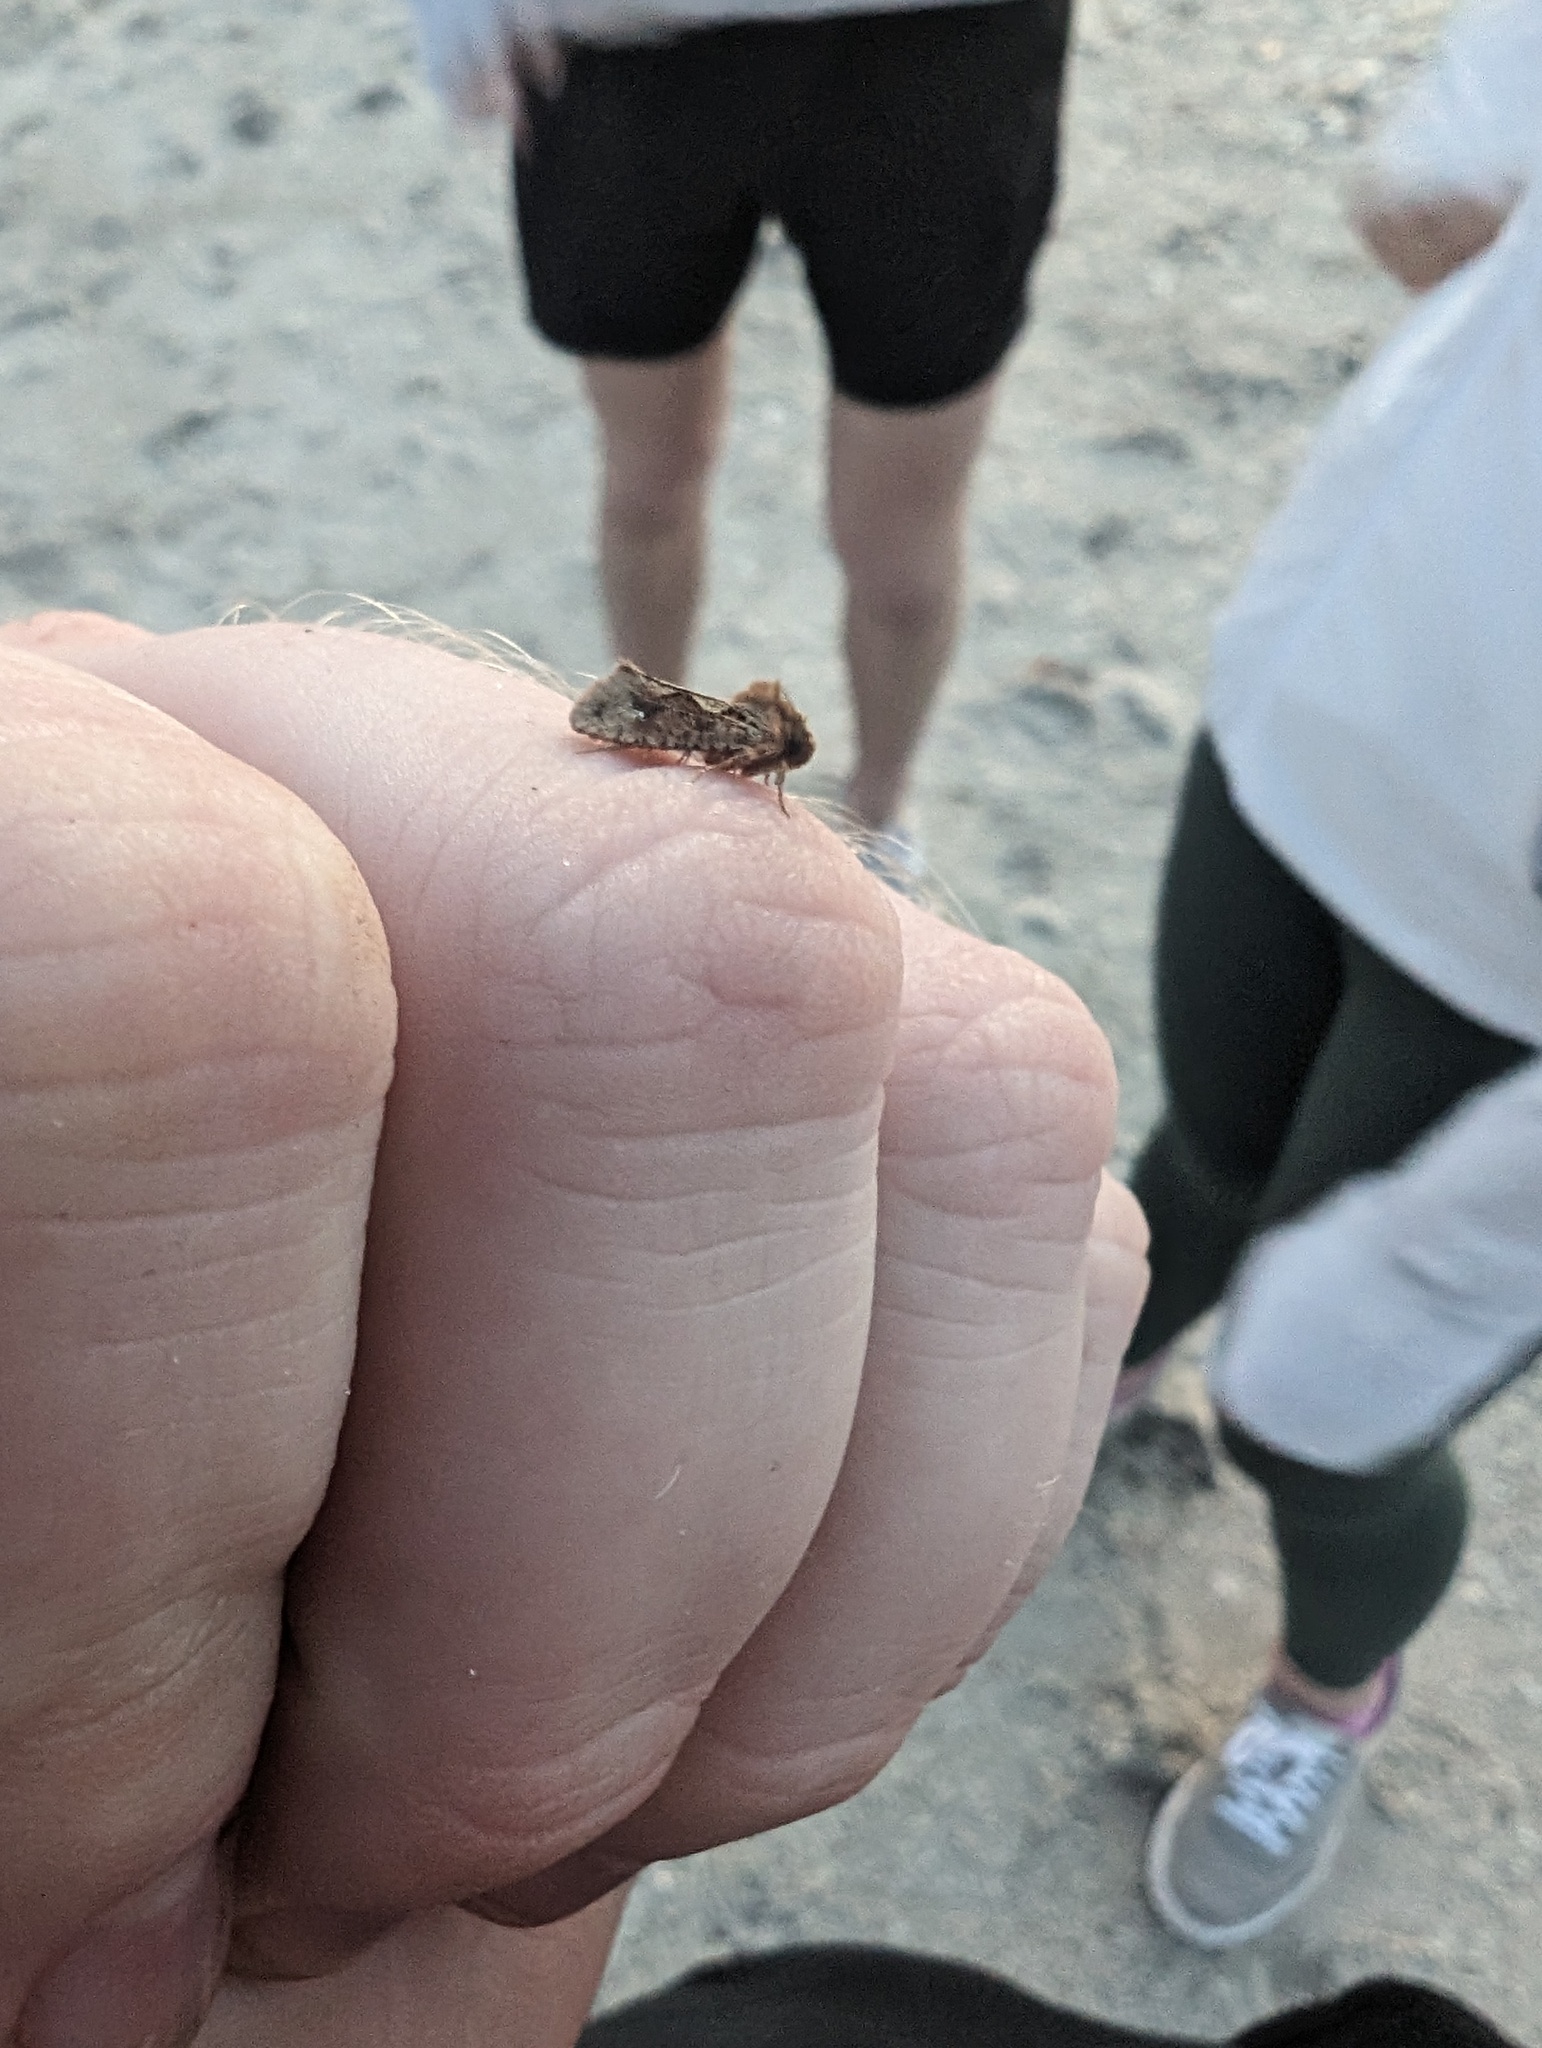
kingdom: Animalia
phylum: Arthropoda
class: Insecta
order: Lepidoptera
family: Tineidae
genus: Acrolophus
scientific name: Acrolophus walsinghami
